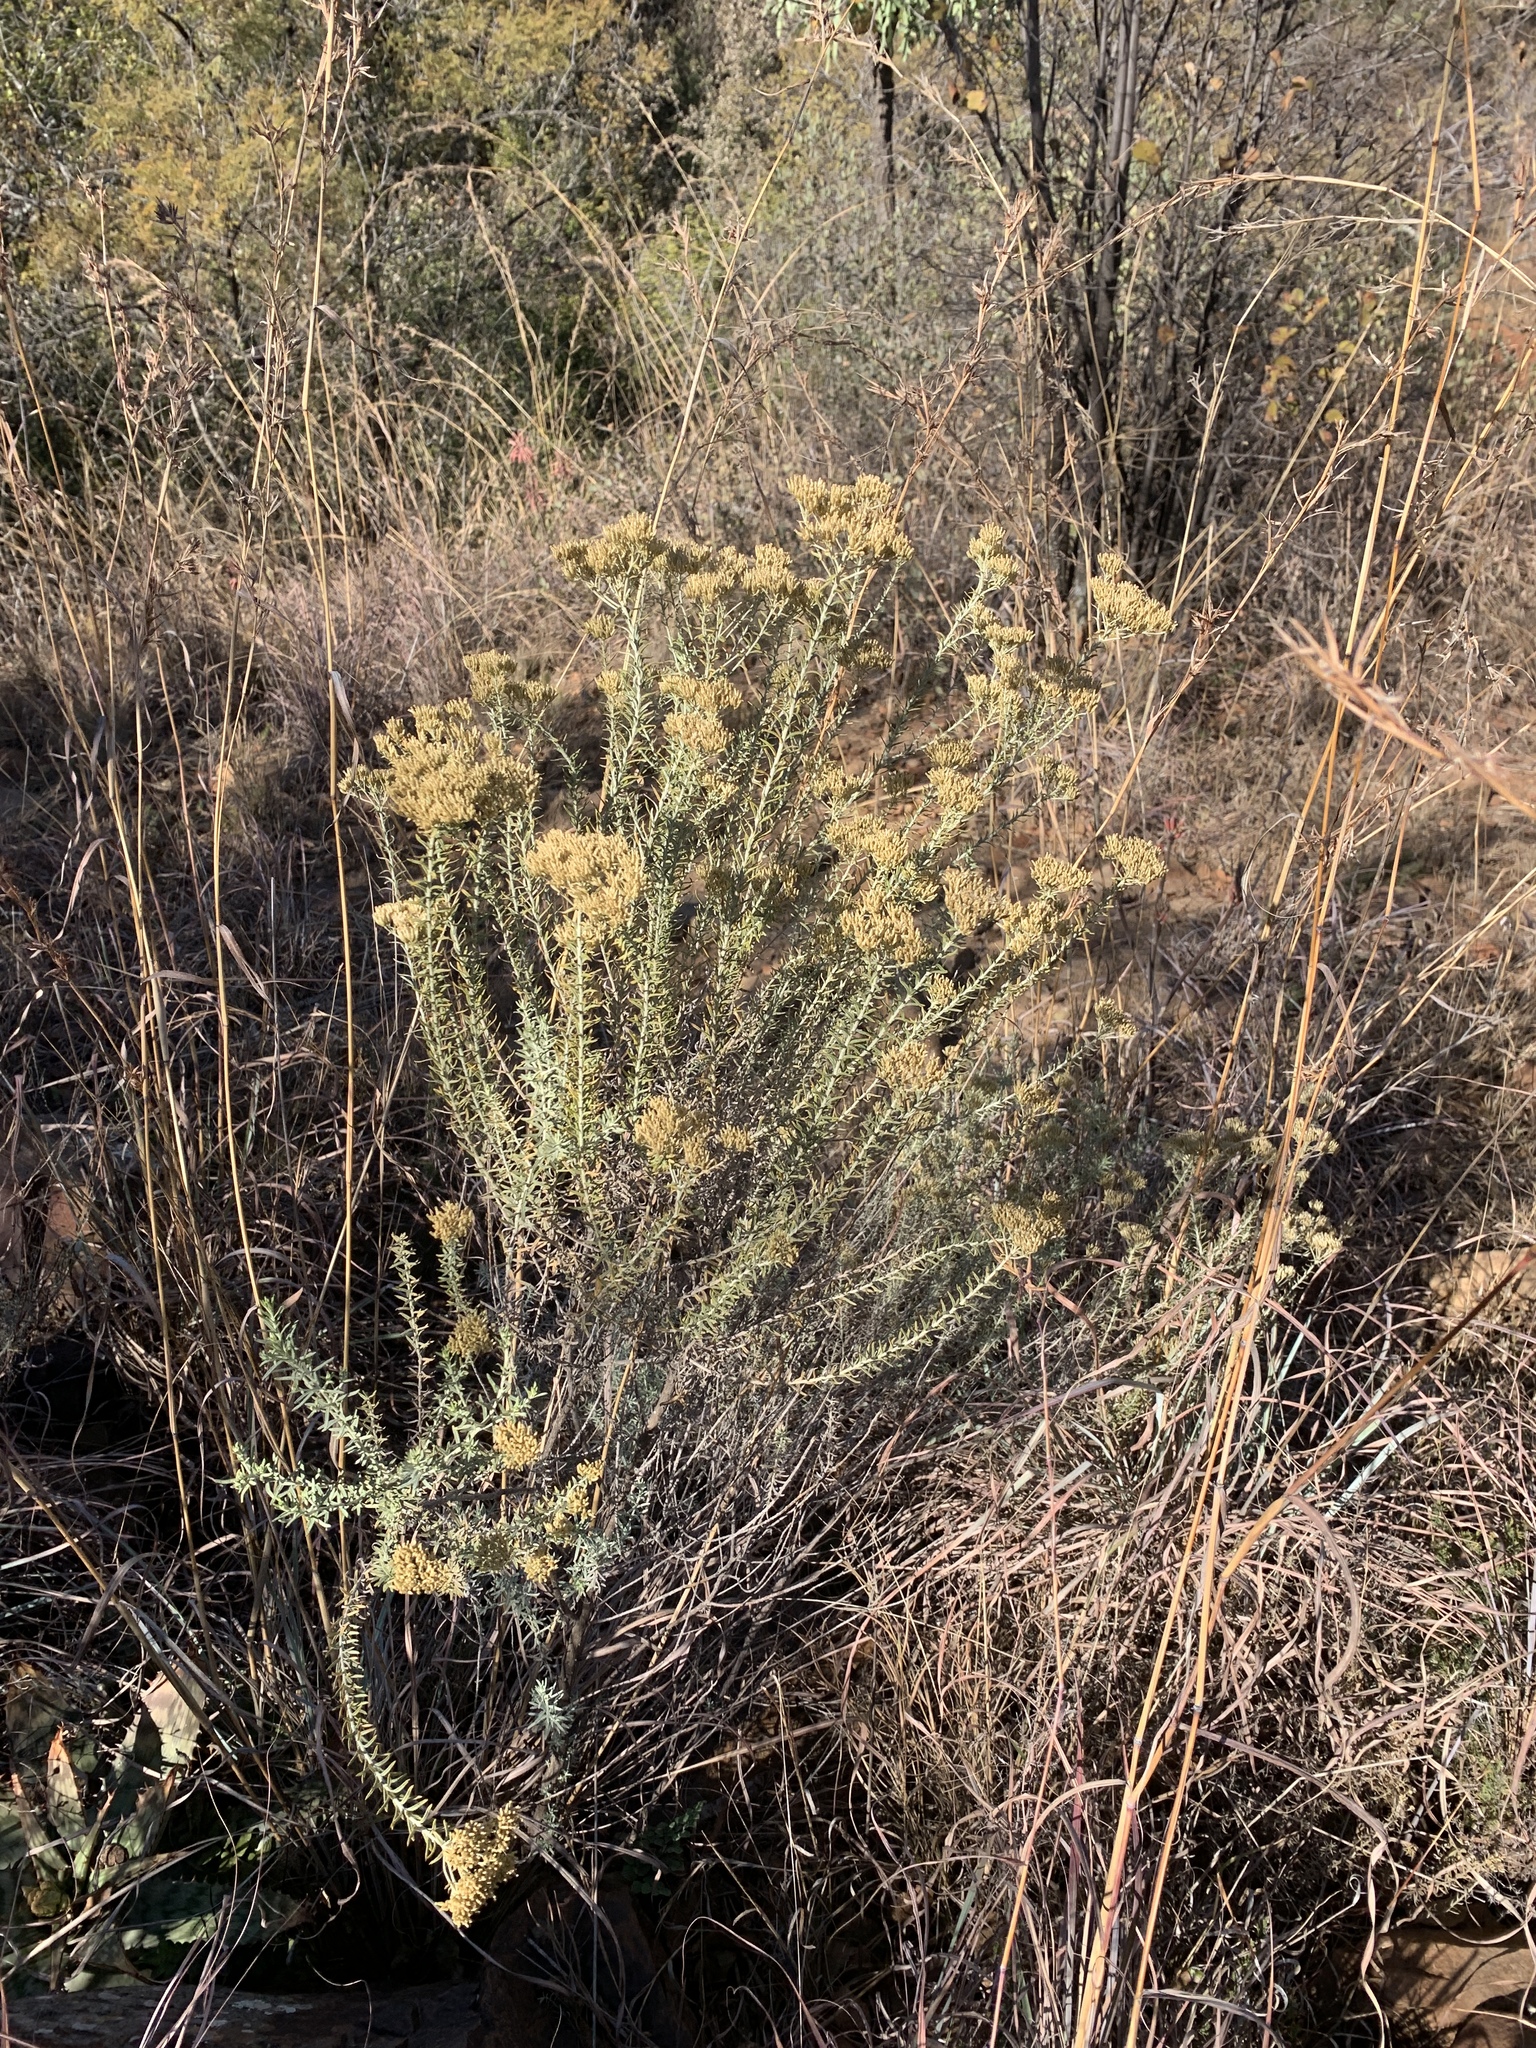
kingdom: Plantae
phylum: Tracheophyta
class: Magnoliopsida
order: Asterales
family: Asteraceae
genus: Helichrysum
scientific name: Helichrysum kraussii
